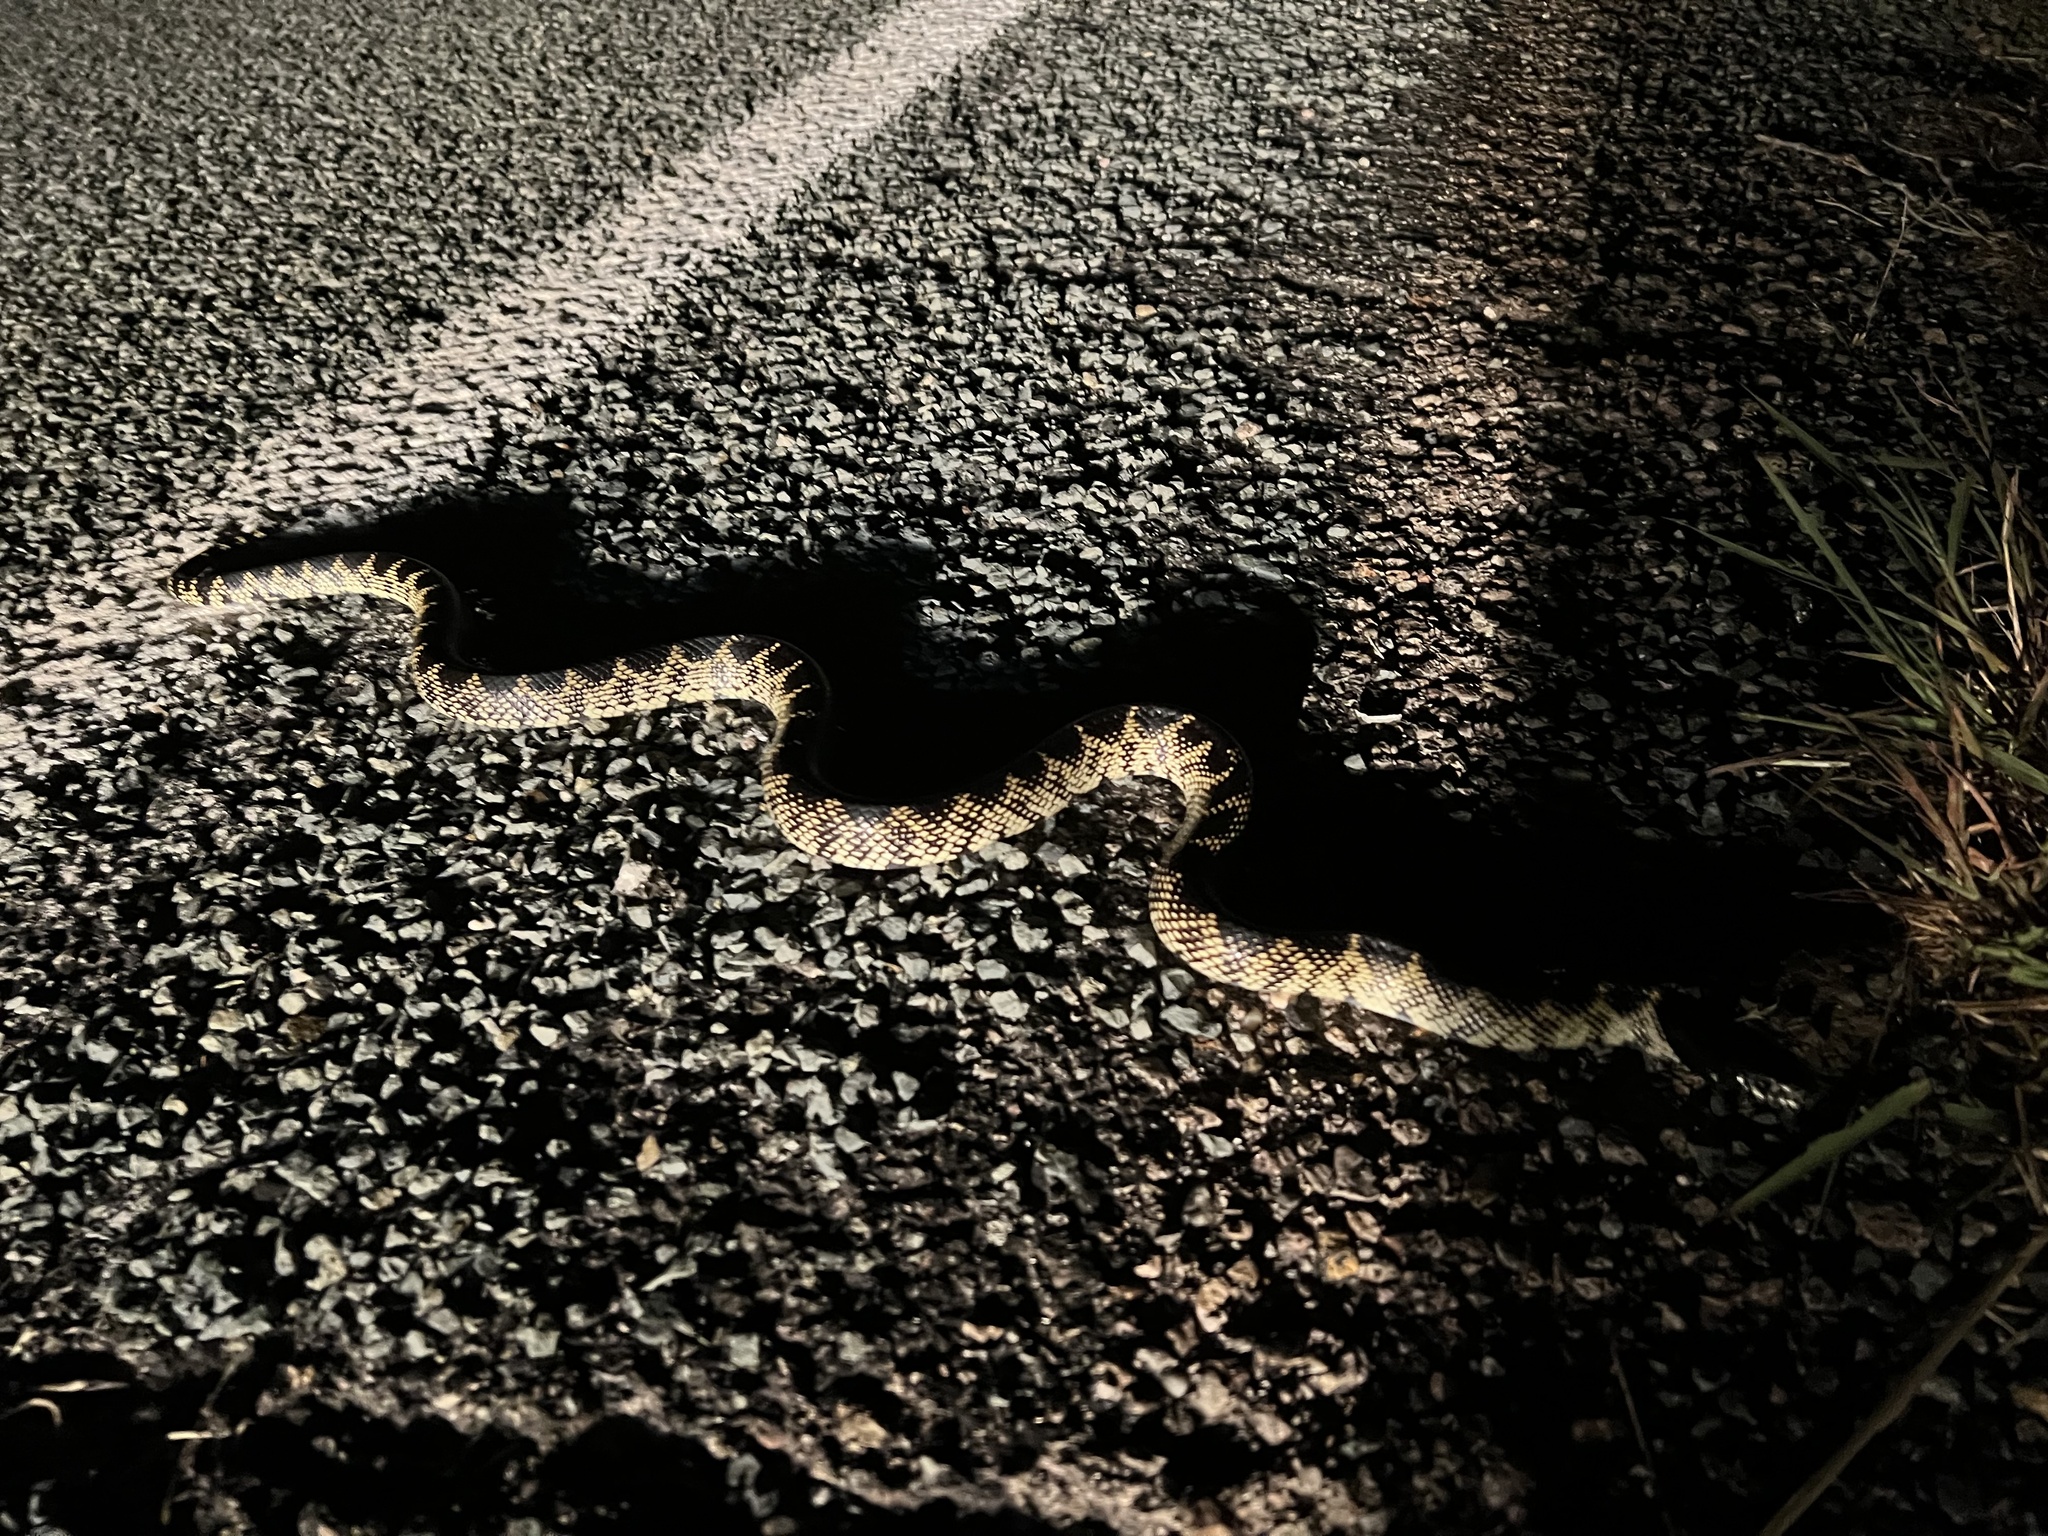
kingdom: Animalia
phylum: Chordata
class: Squamata
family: Colubridae
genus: Lampropeltis
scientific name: Lampropeltis splendida
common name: Desert kingsnake
